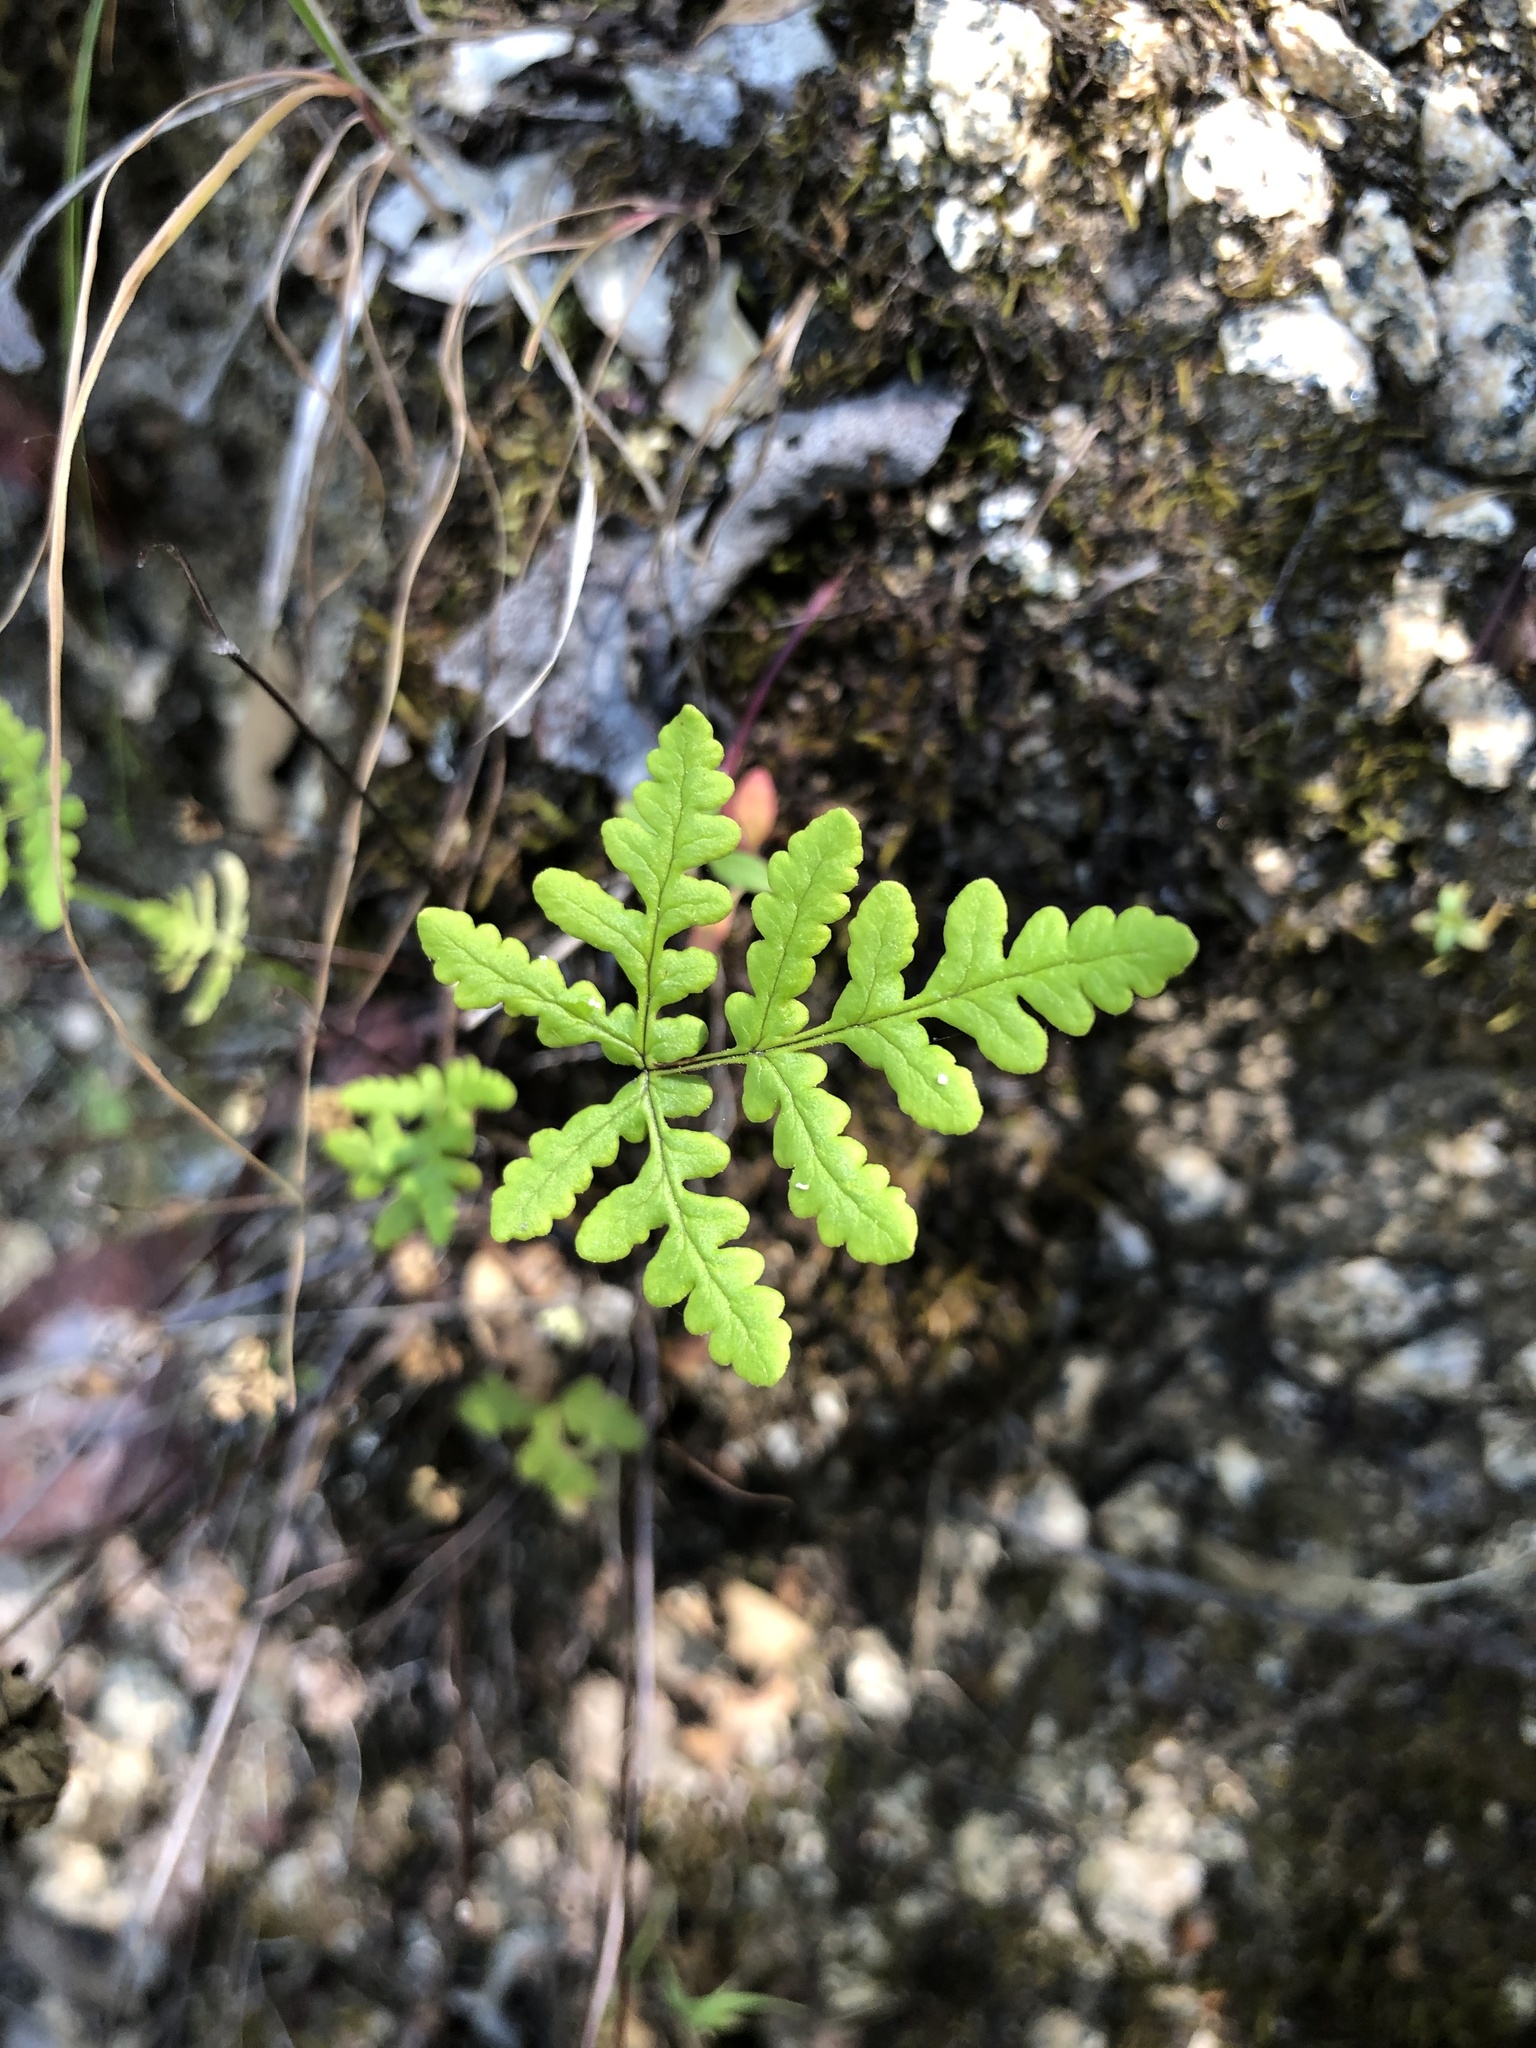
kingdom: Plantae
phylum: Tracheophyta
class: Polypodiopsida
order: Polypodiales
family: Pteridaceae
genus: Pentagramma
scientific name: Pentagramma triangularis
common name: Gold fern
